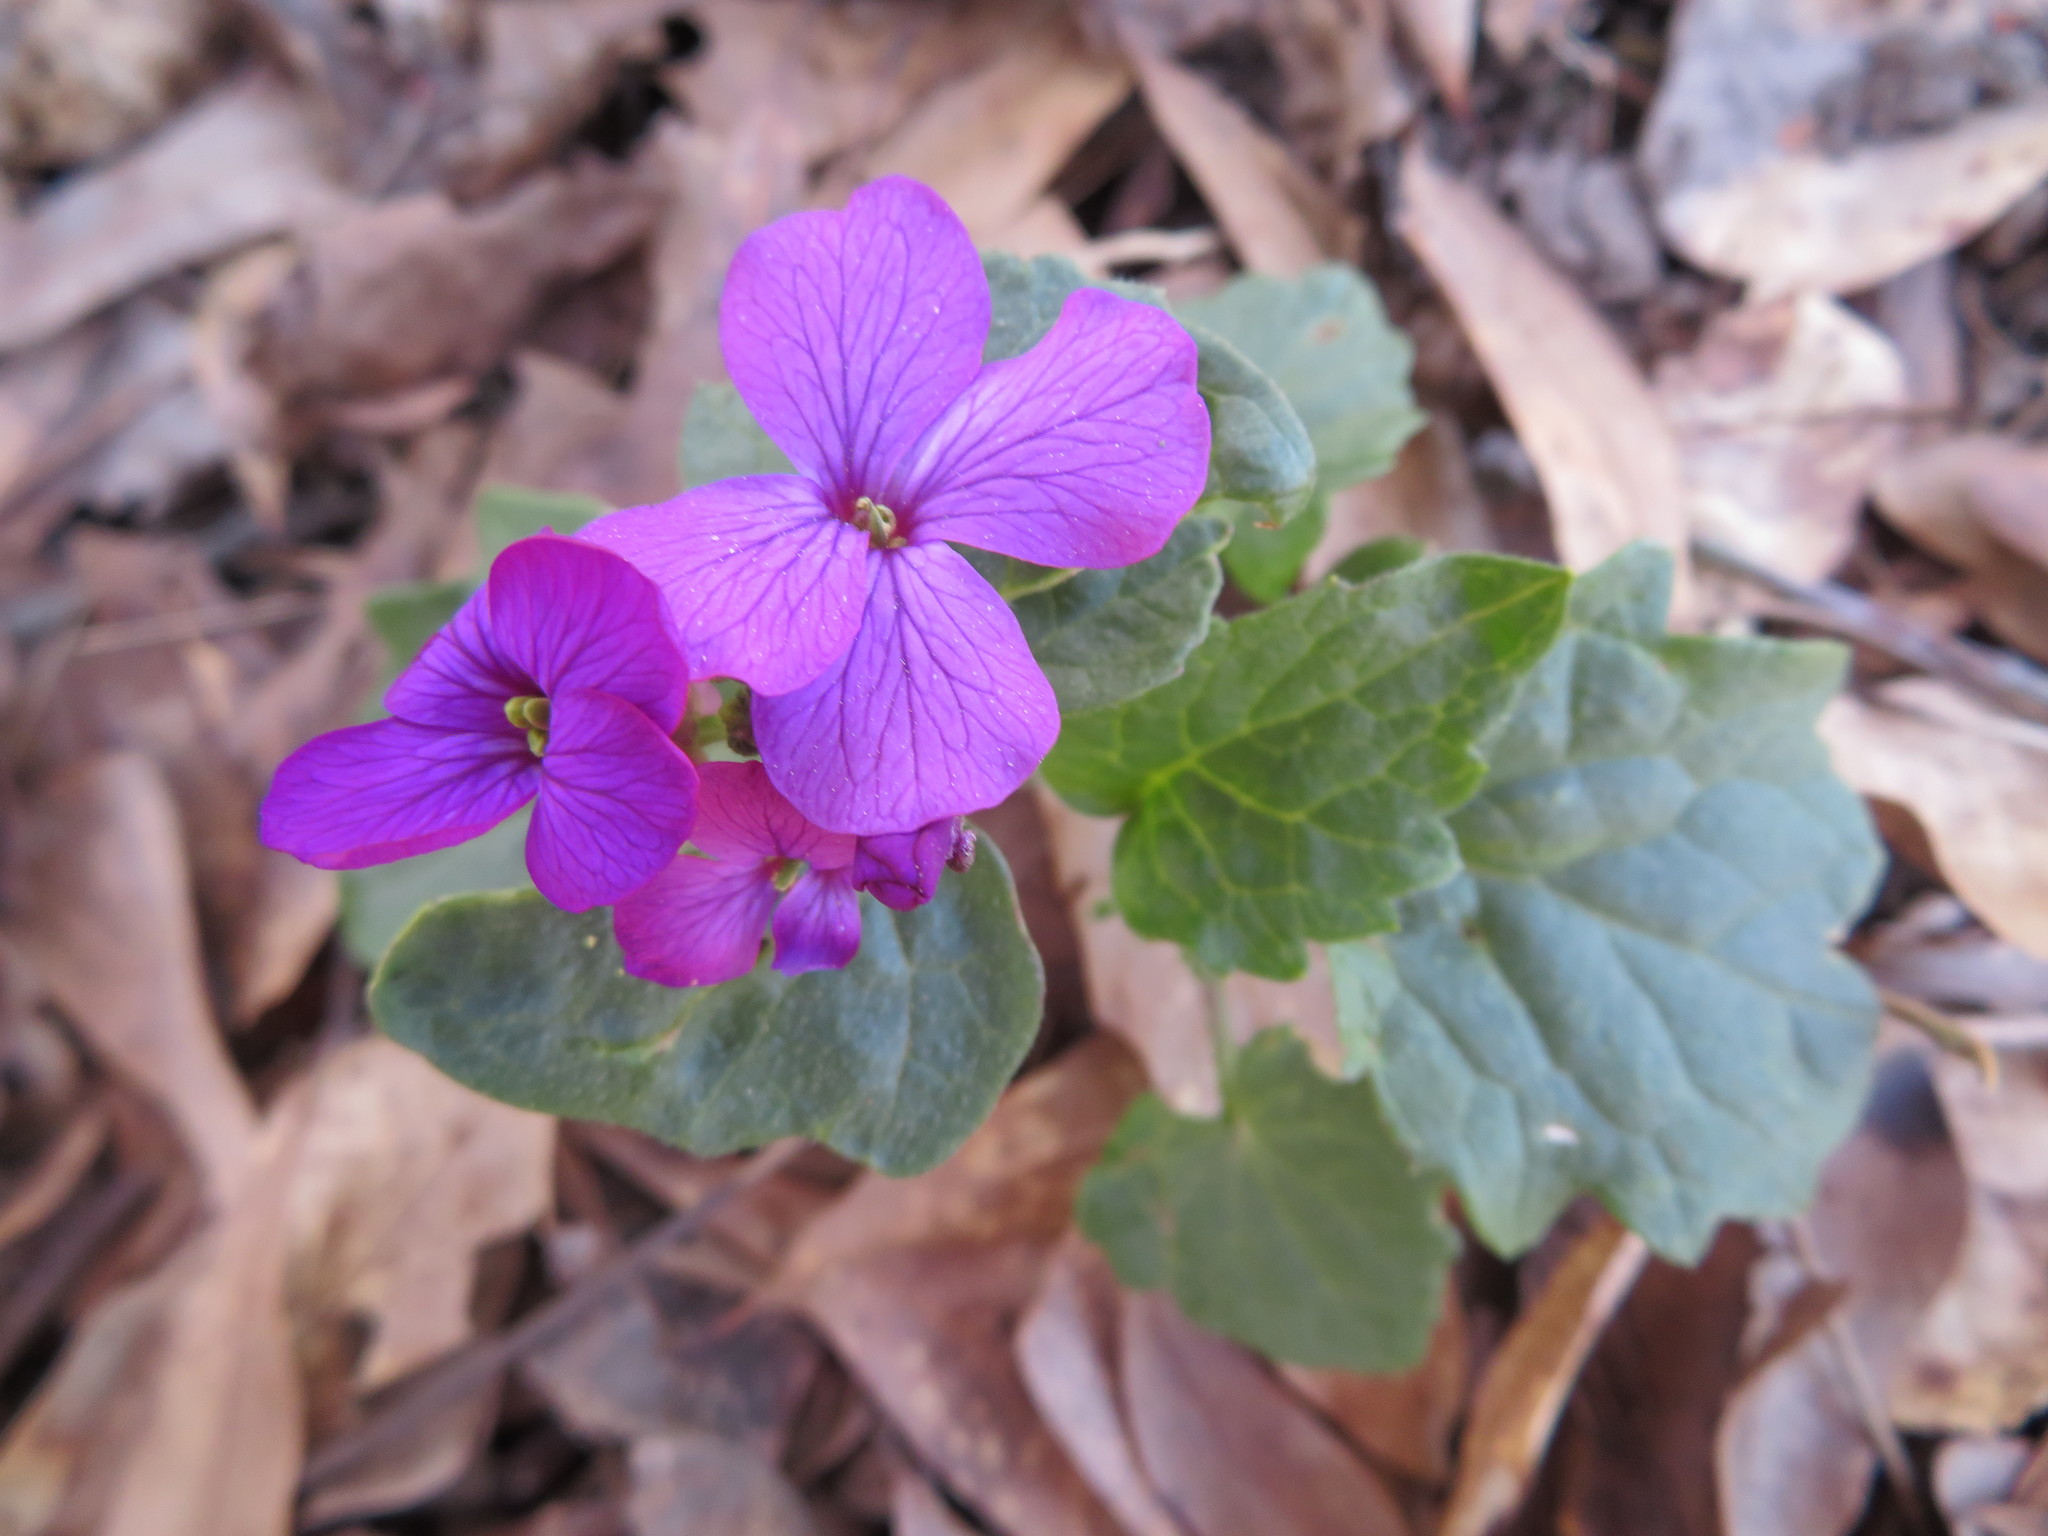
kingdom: Plantae
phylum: Tracheophyta
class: Magnoliopsida
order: Brassicales
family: Brassicaceae
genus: Lunaria
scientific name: Lunaria annua
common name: Honesty
